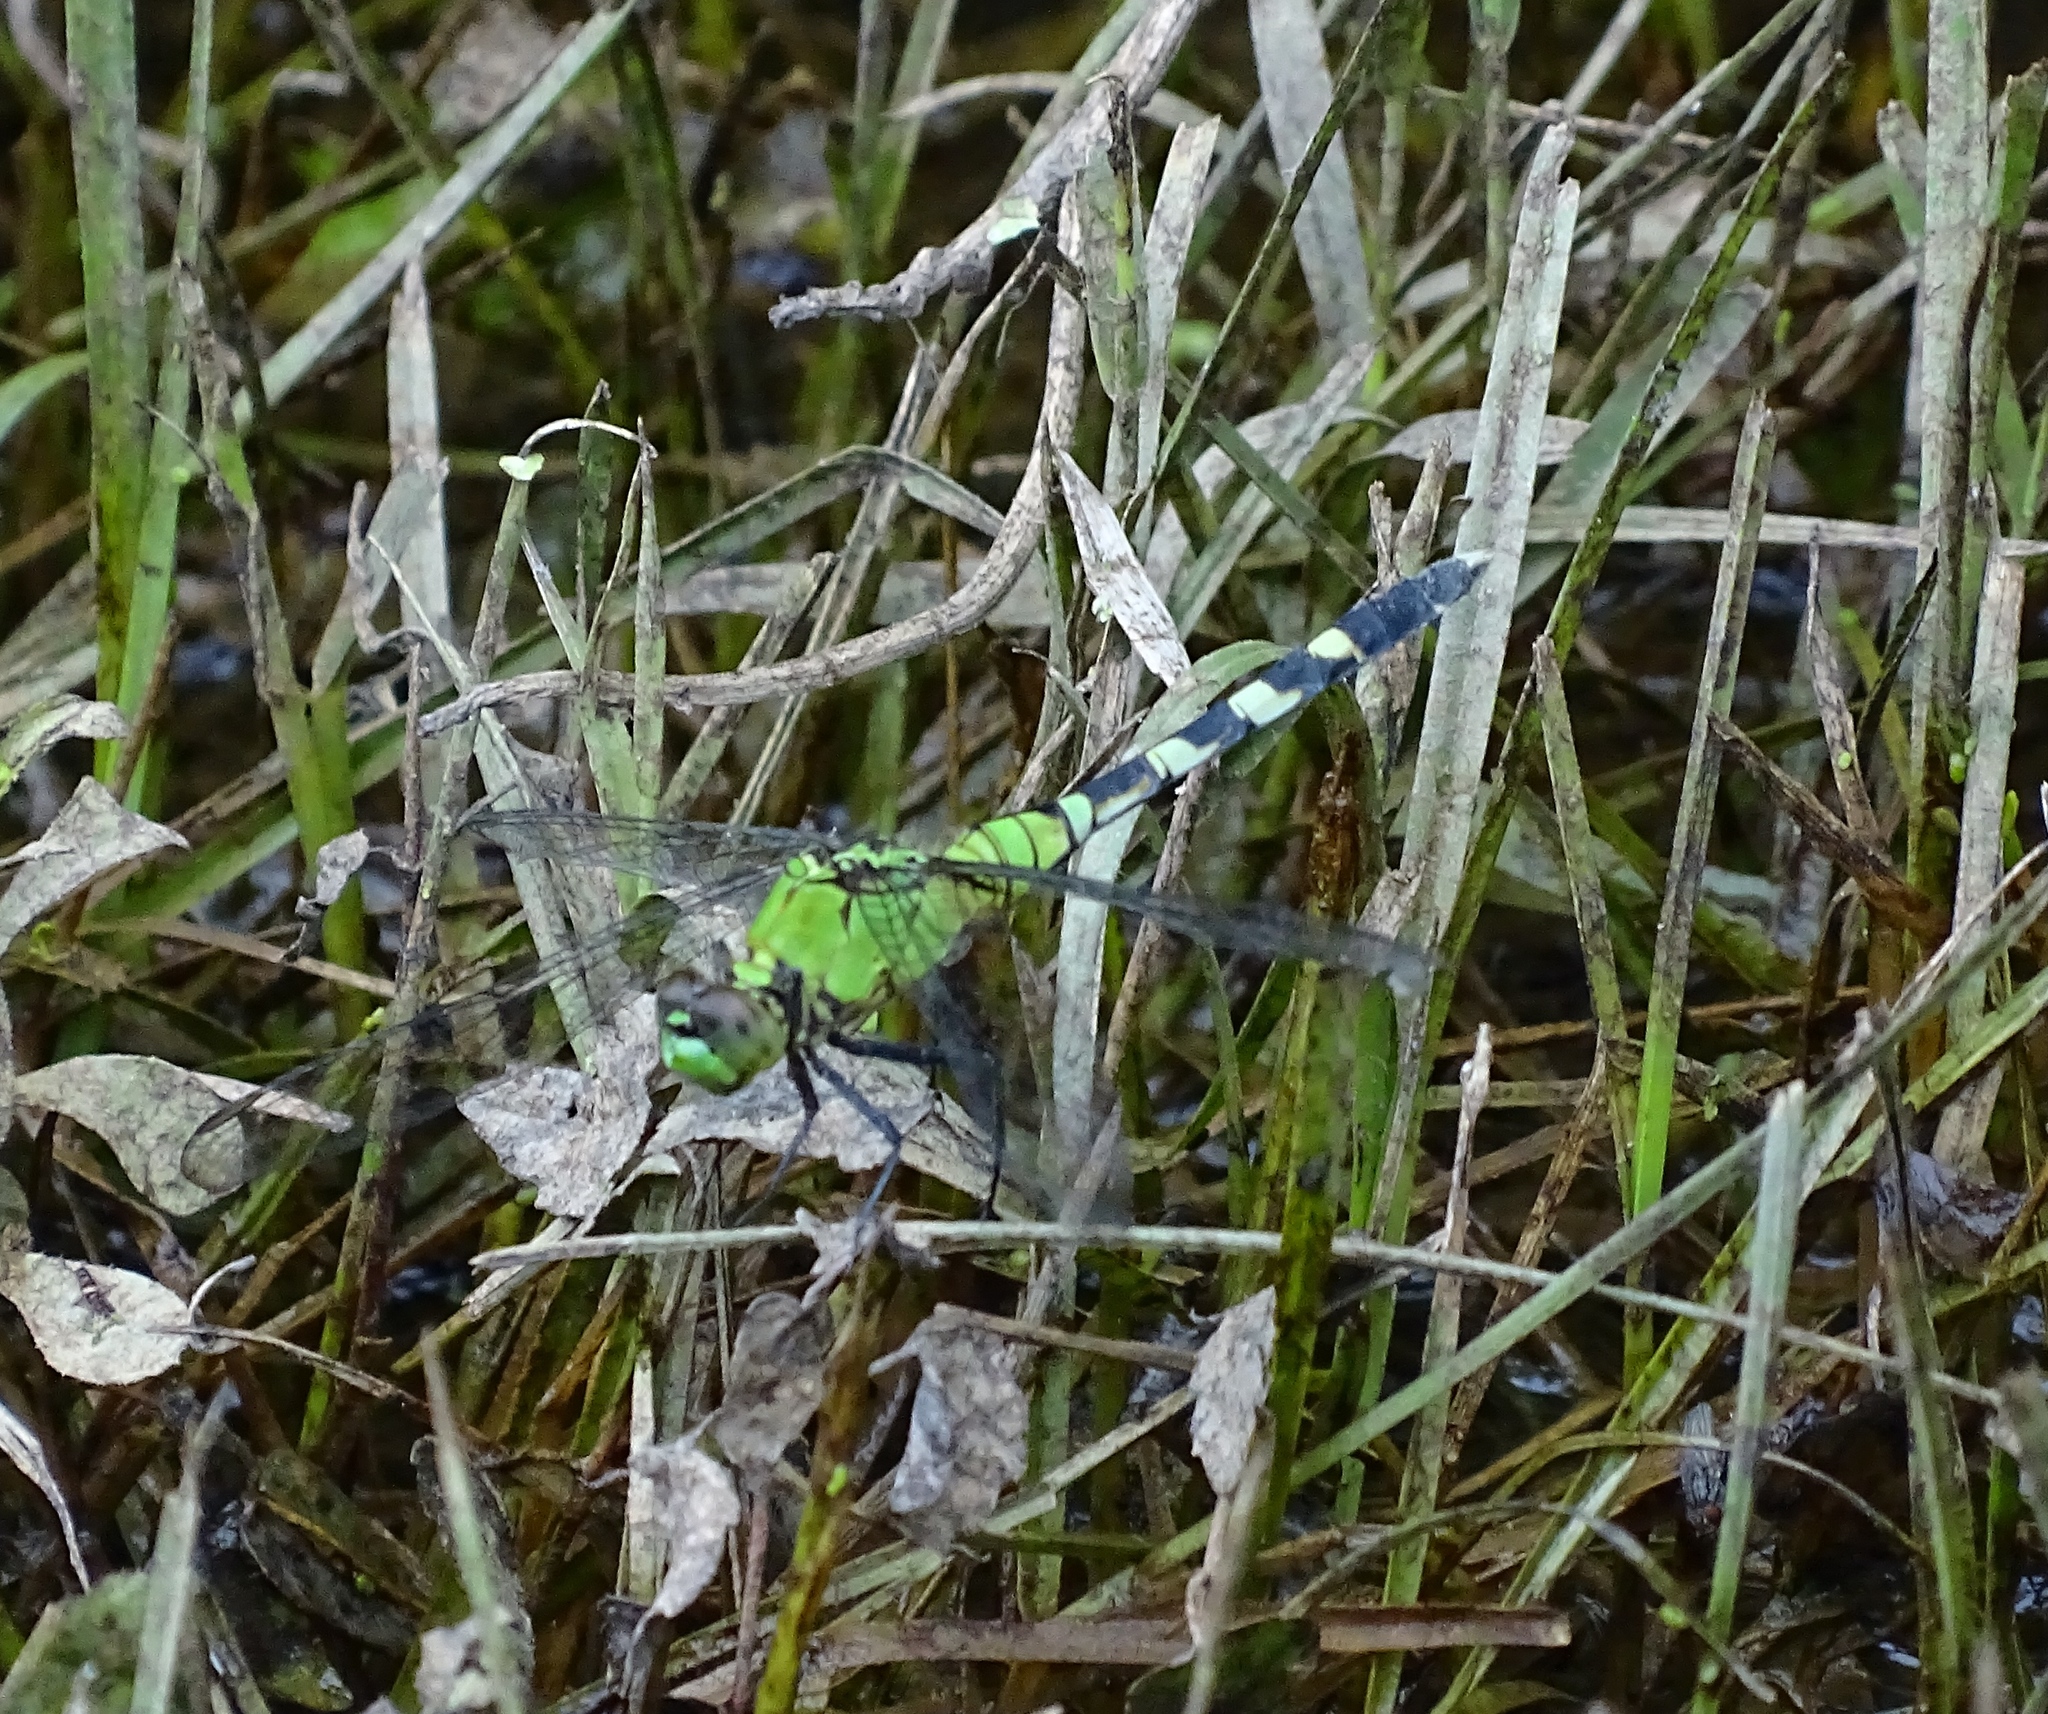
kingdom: Animalia
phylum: Arthropoda
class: Insecta
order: Odonata
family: Libellulidae
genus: Erythemis
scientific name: Erythemis simplicicollis
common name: Eastern pondhawk
